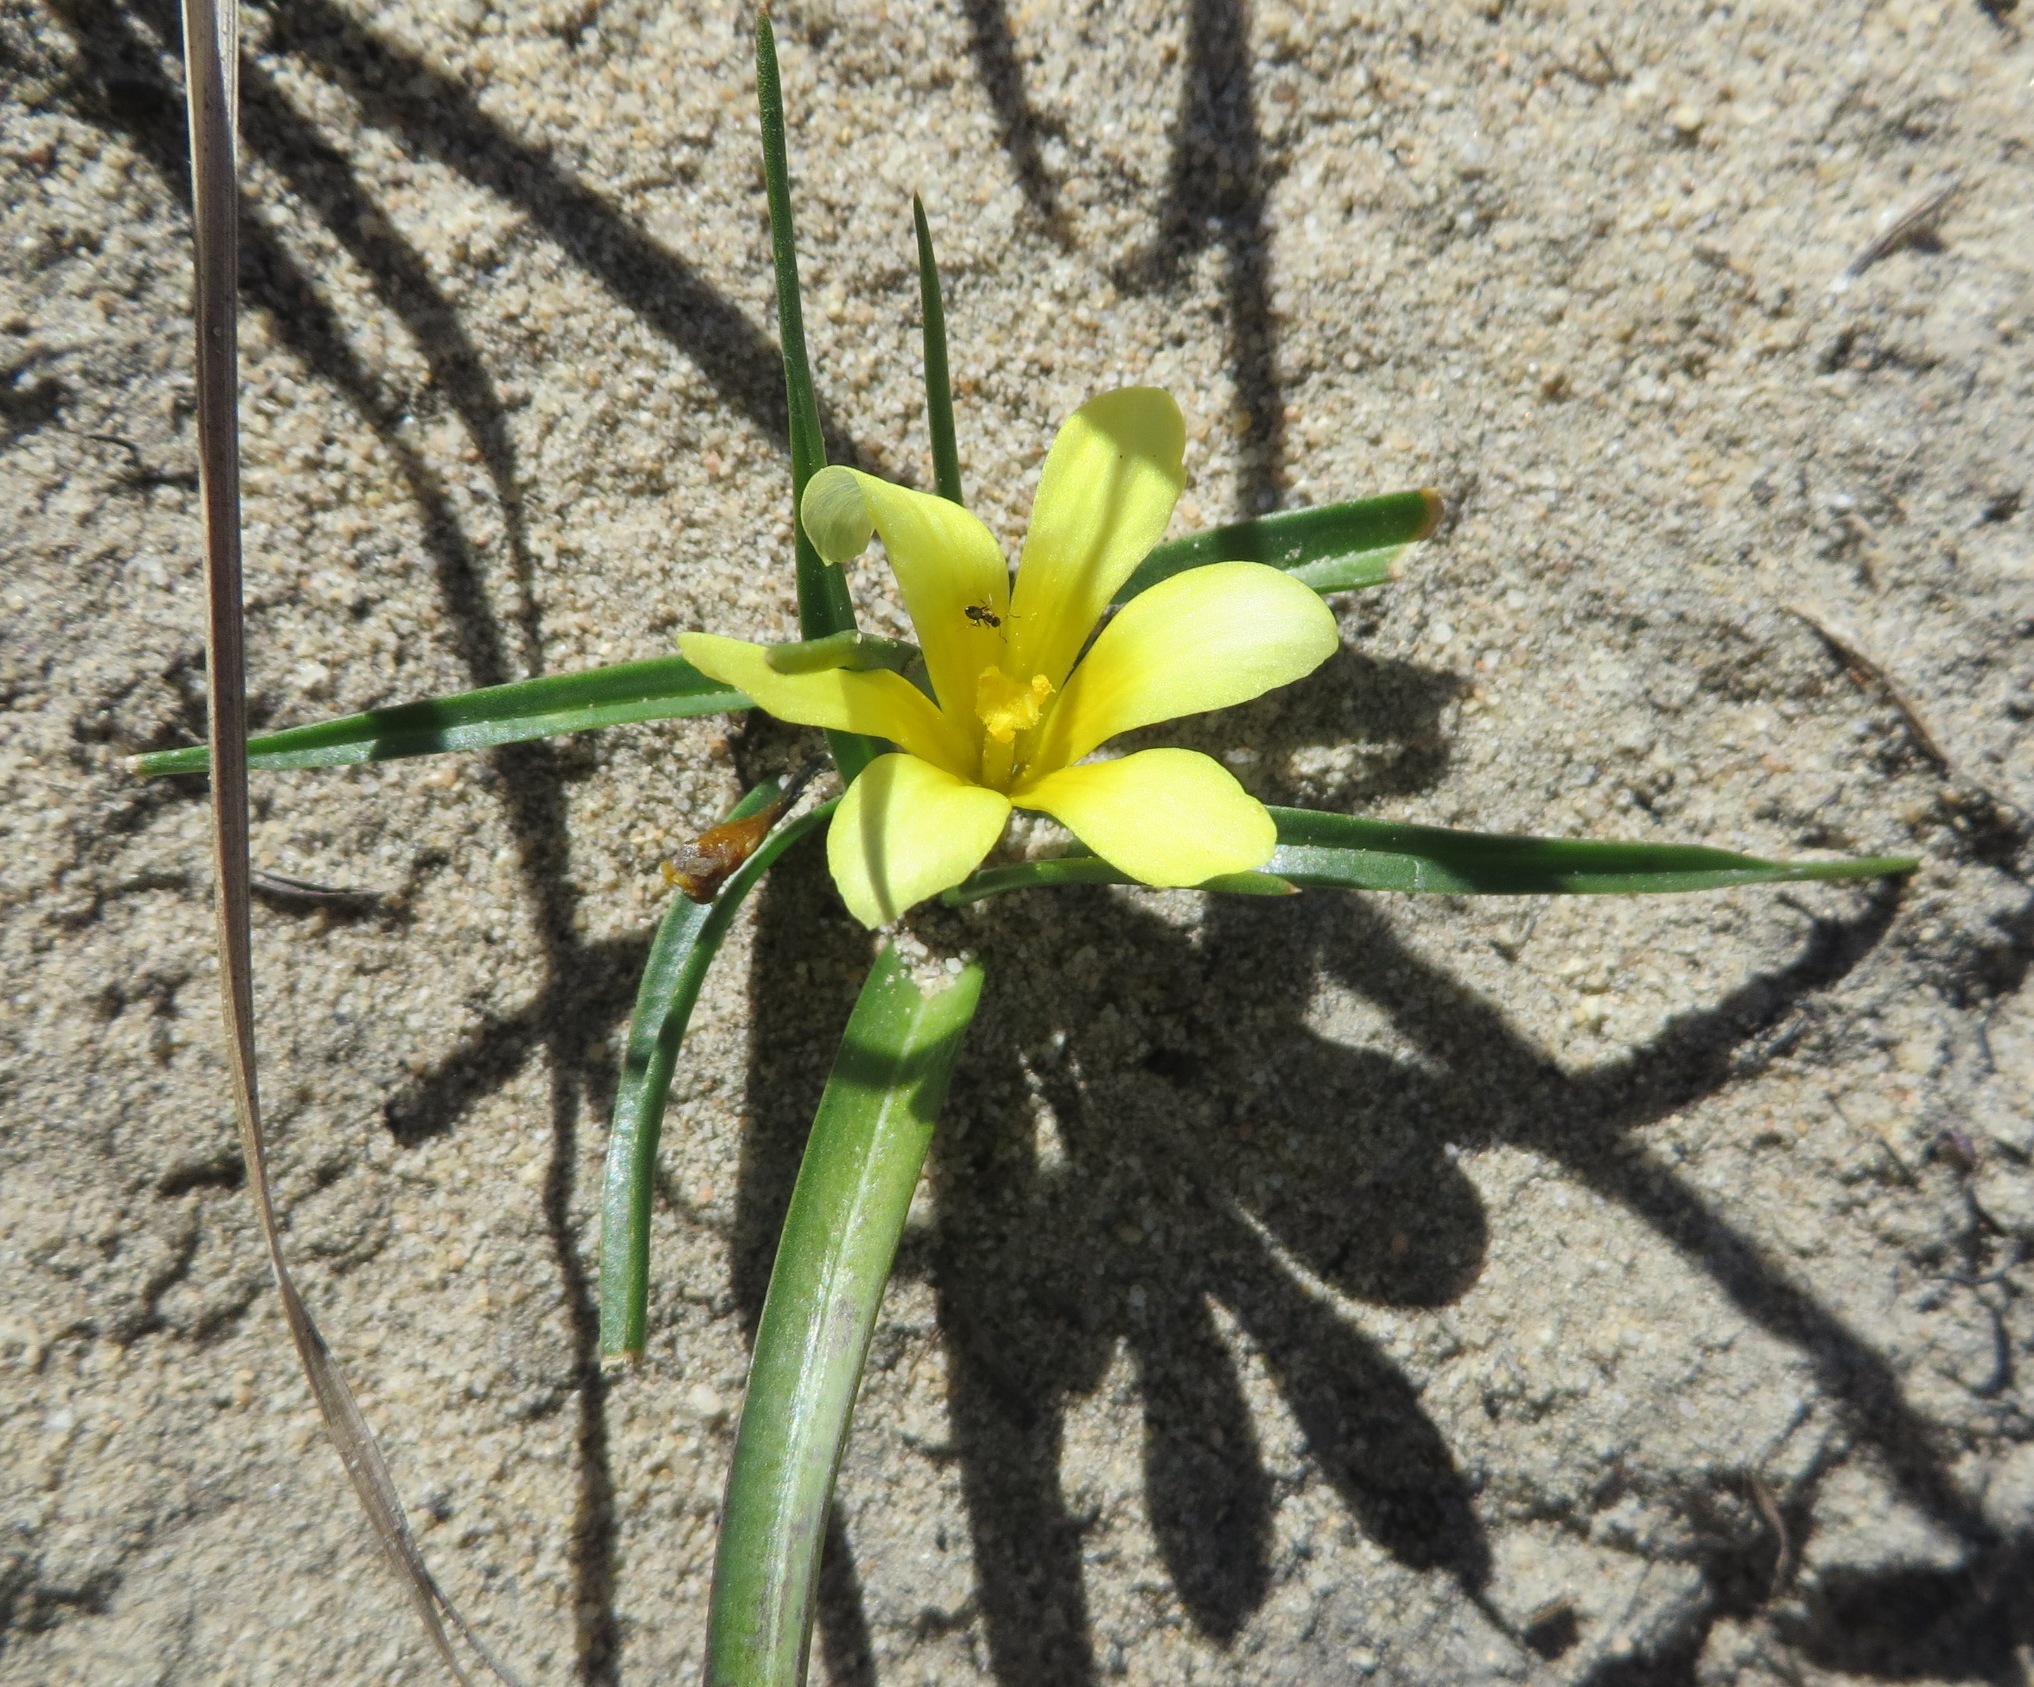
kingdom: Plantae
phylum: Tracheophyta
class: Liliopsida
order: Asparagales
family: Iridaceae
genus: Moraea
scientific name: Moraea fugacissima
